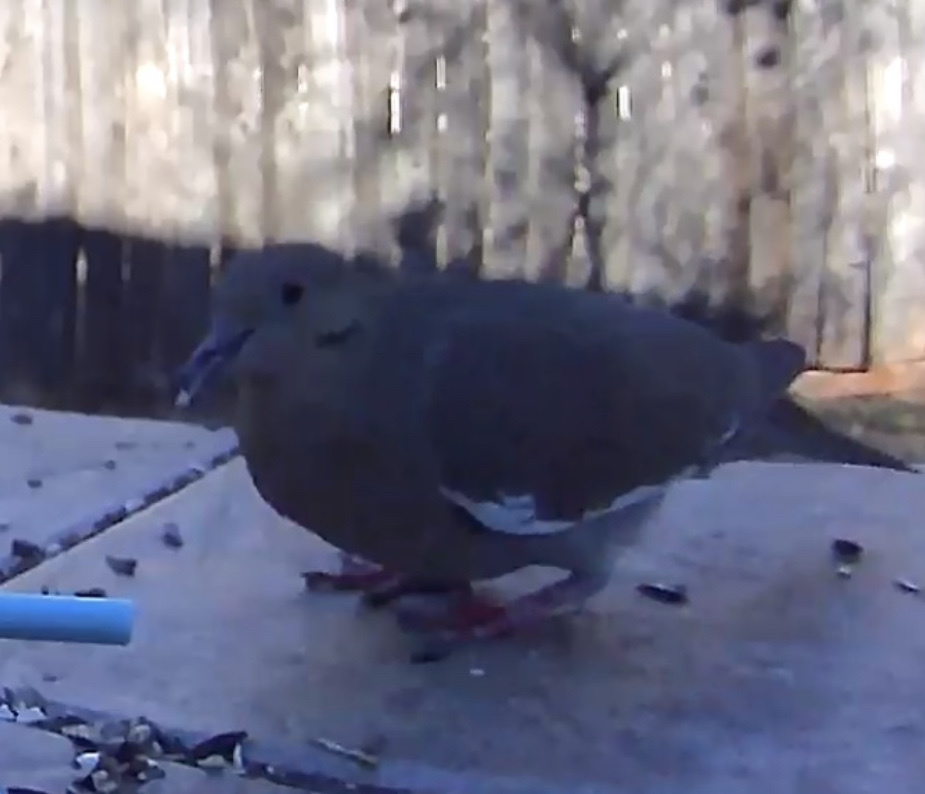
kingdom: Animalia
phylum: Chordata
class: Aves
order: Columbiformes
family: Columbidae
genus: Zenaida
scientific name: Zenaida asiatica
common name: White-winged dove
